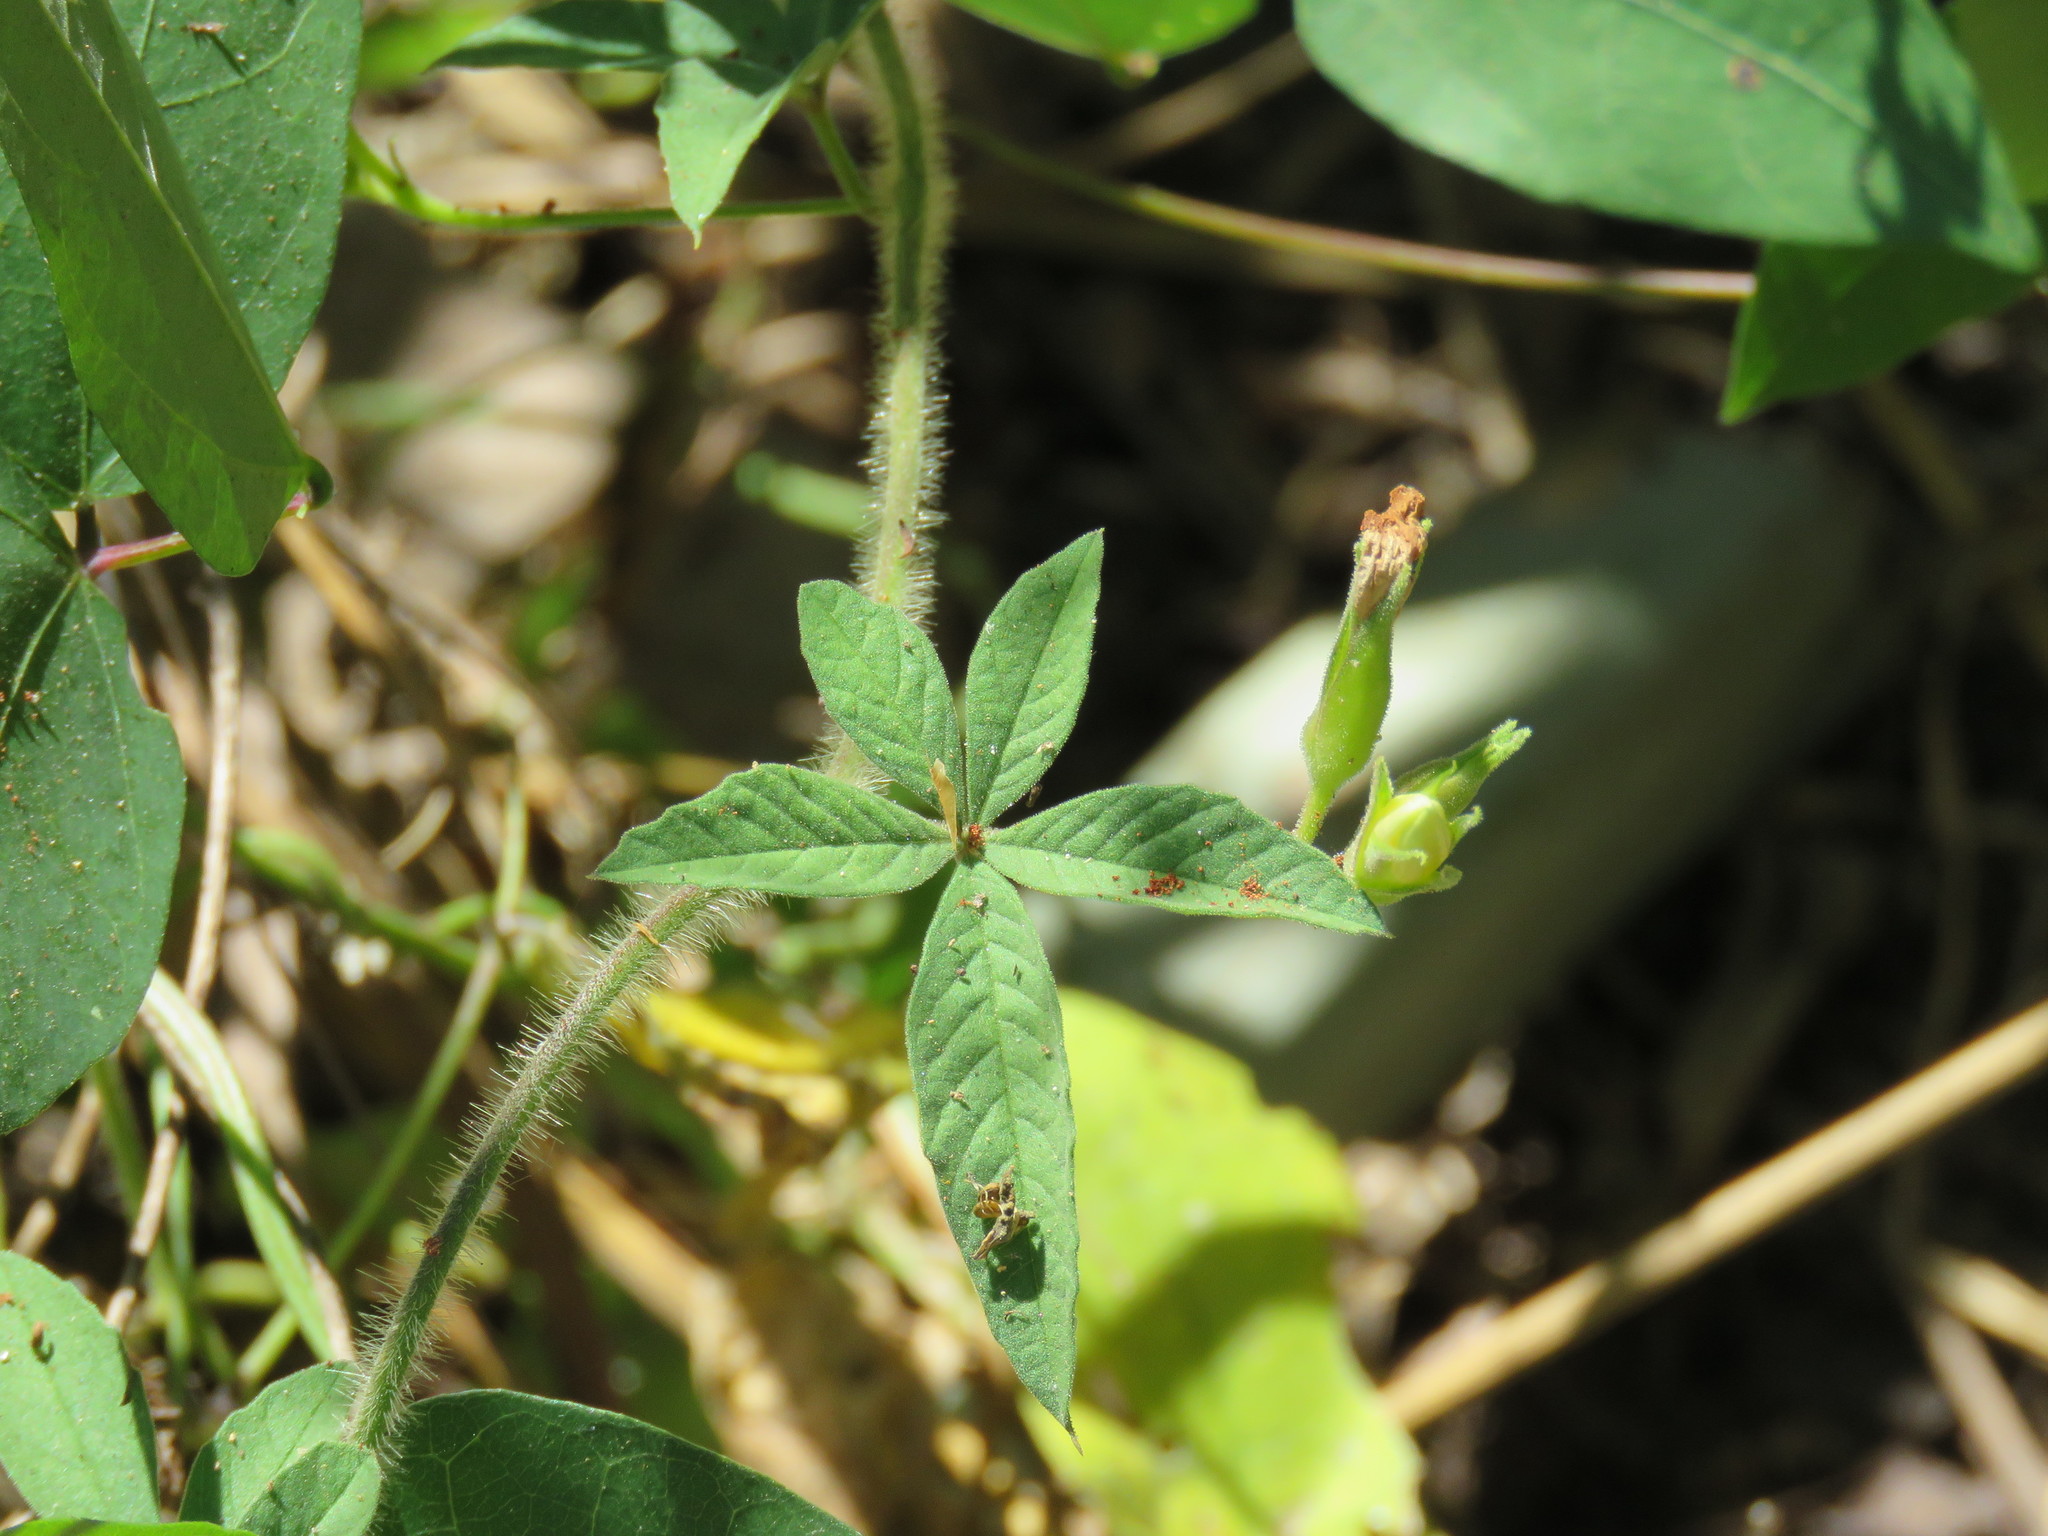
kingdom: Plantae
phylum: Tracheophyta
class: Magnoliopsida
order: Solanales
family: Convolvulaceae
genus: Distimake
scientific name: Distimake cissoides
